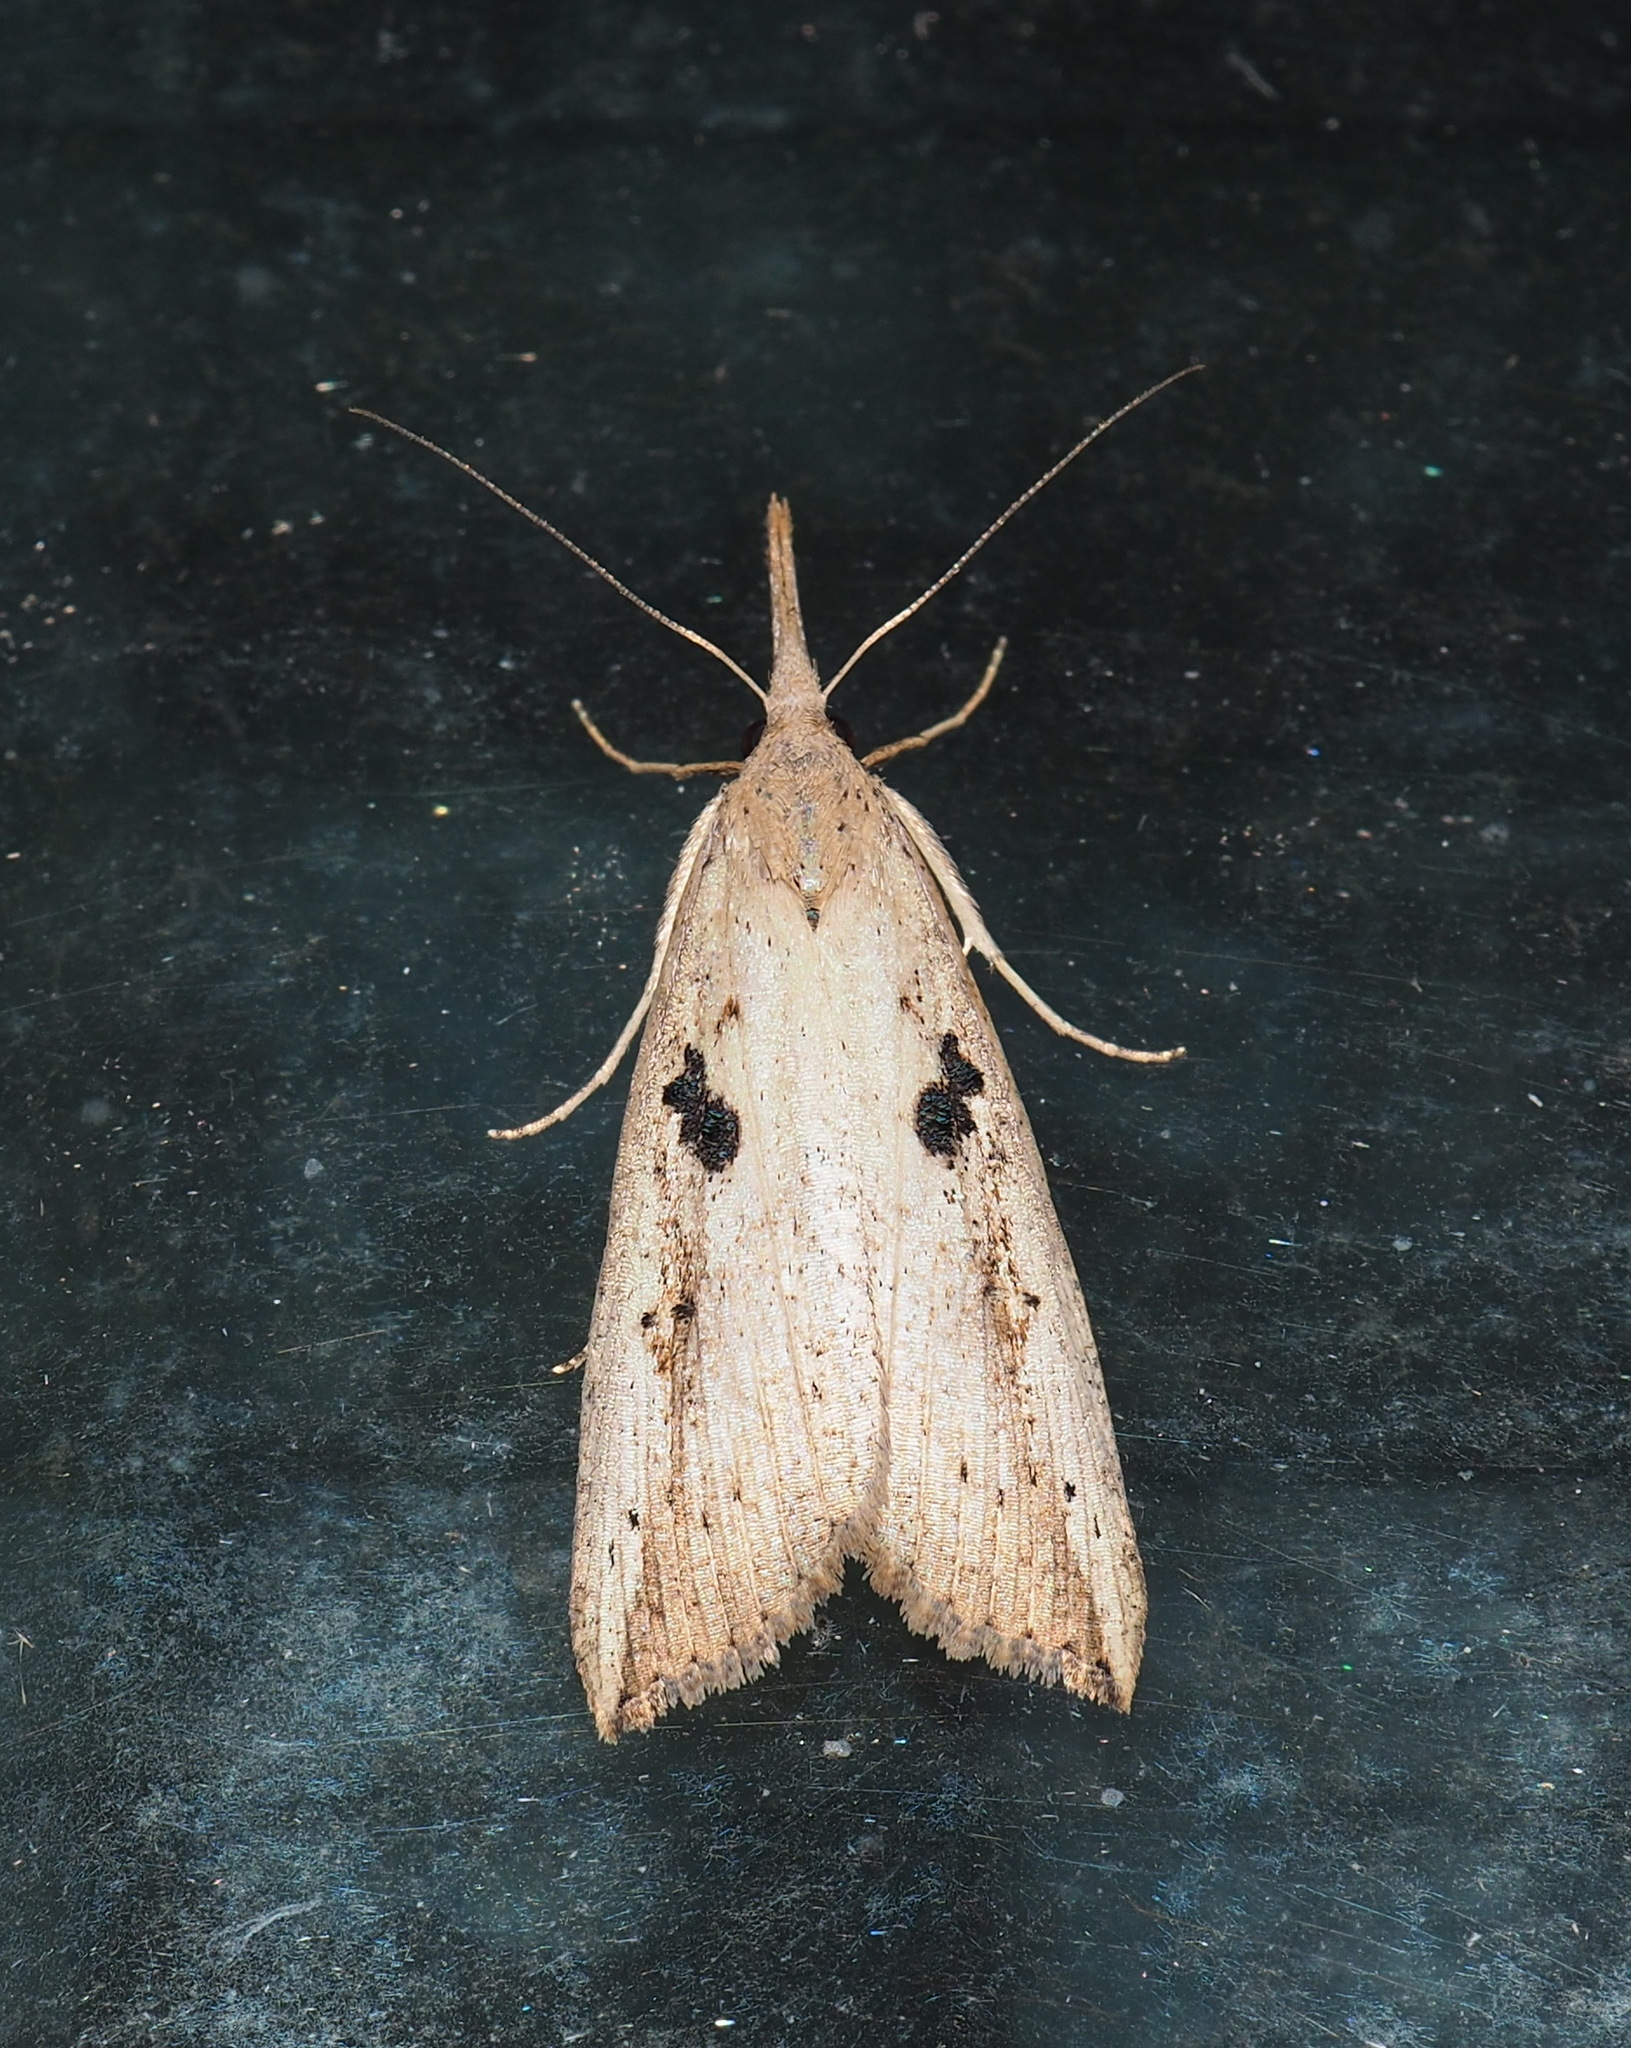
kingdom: Animalia
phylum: Arthropoda
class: Insecta
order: Lepidoptera
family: Erebidae
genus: Hypena
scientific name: Hypena longipennis
